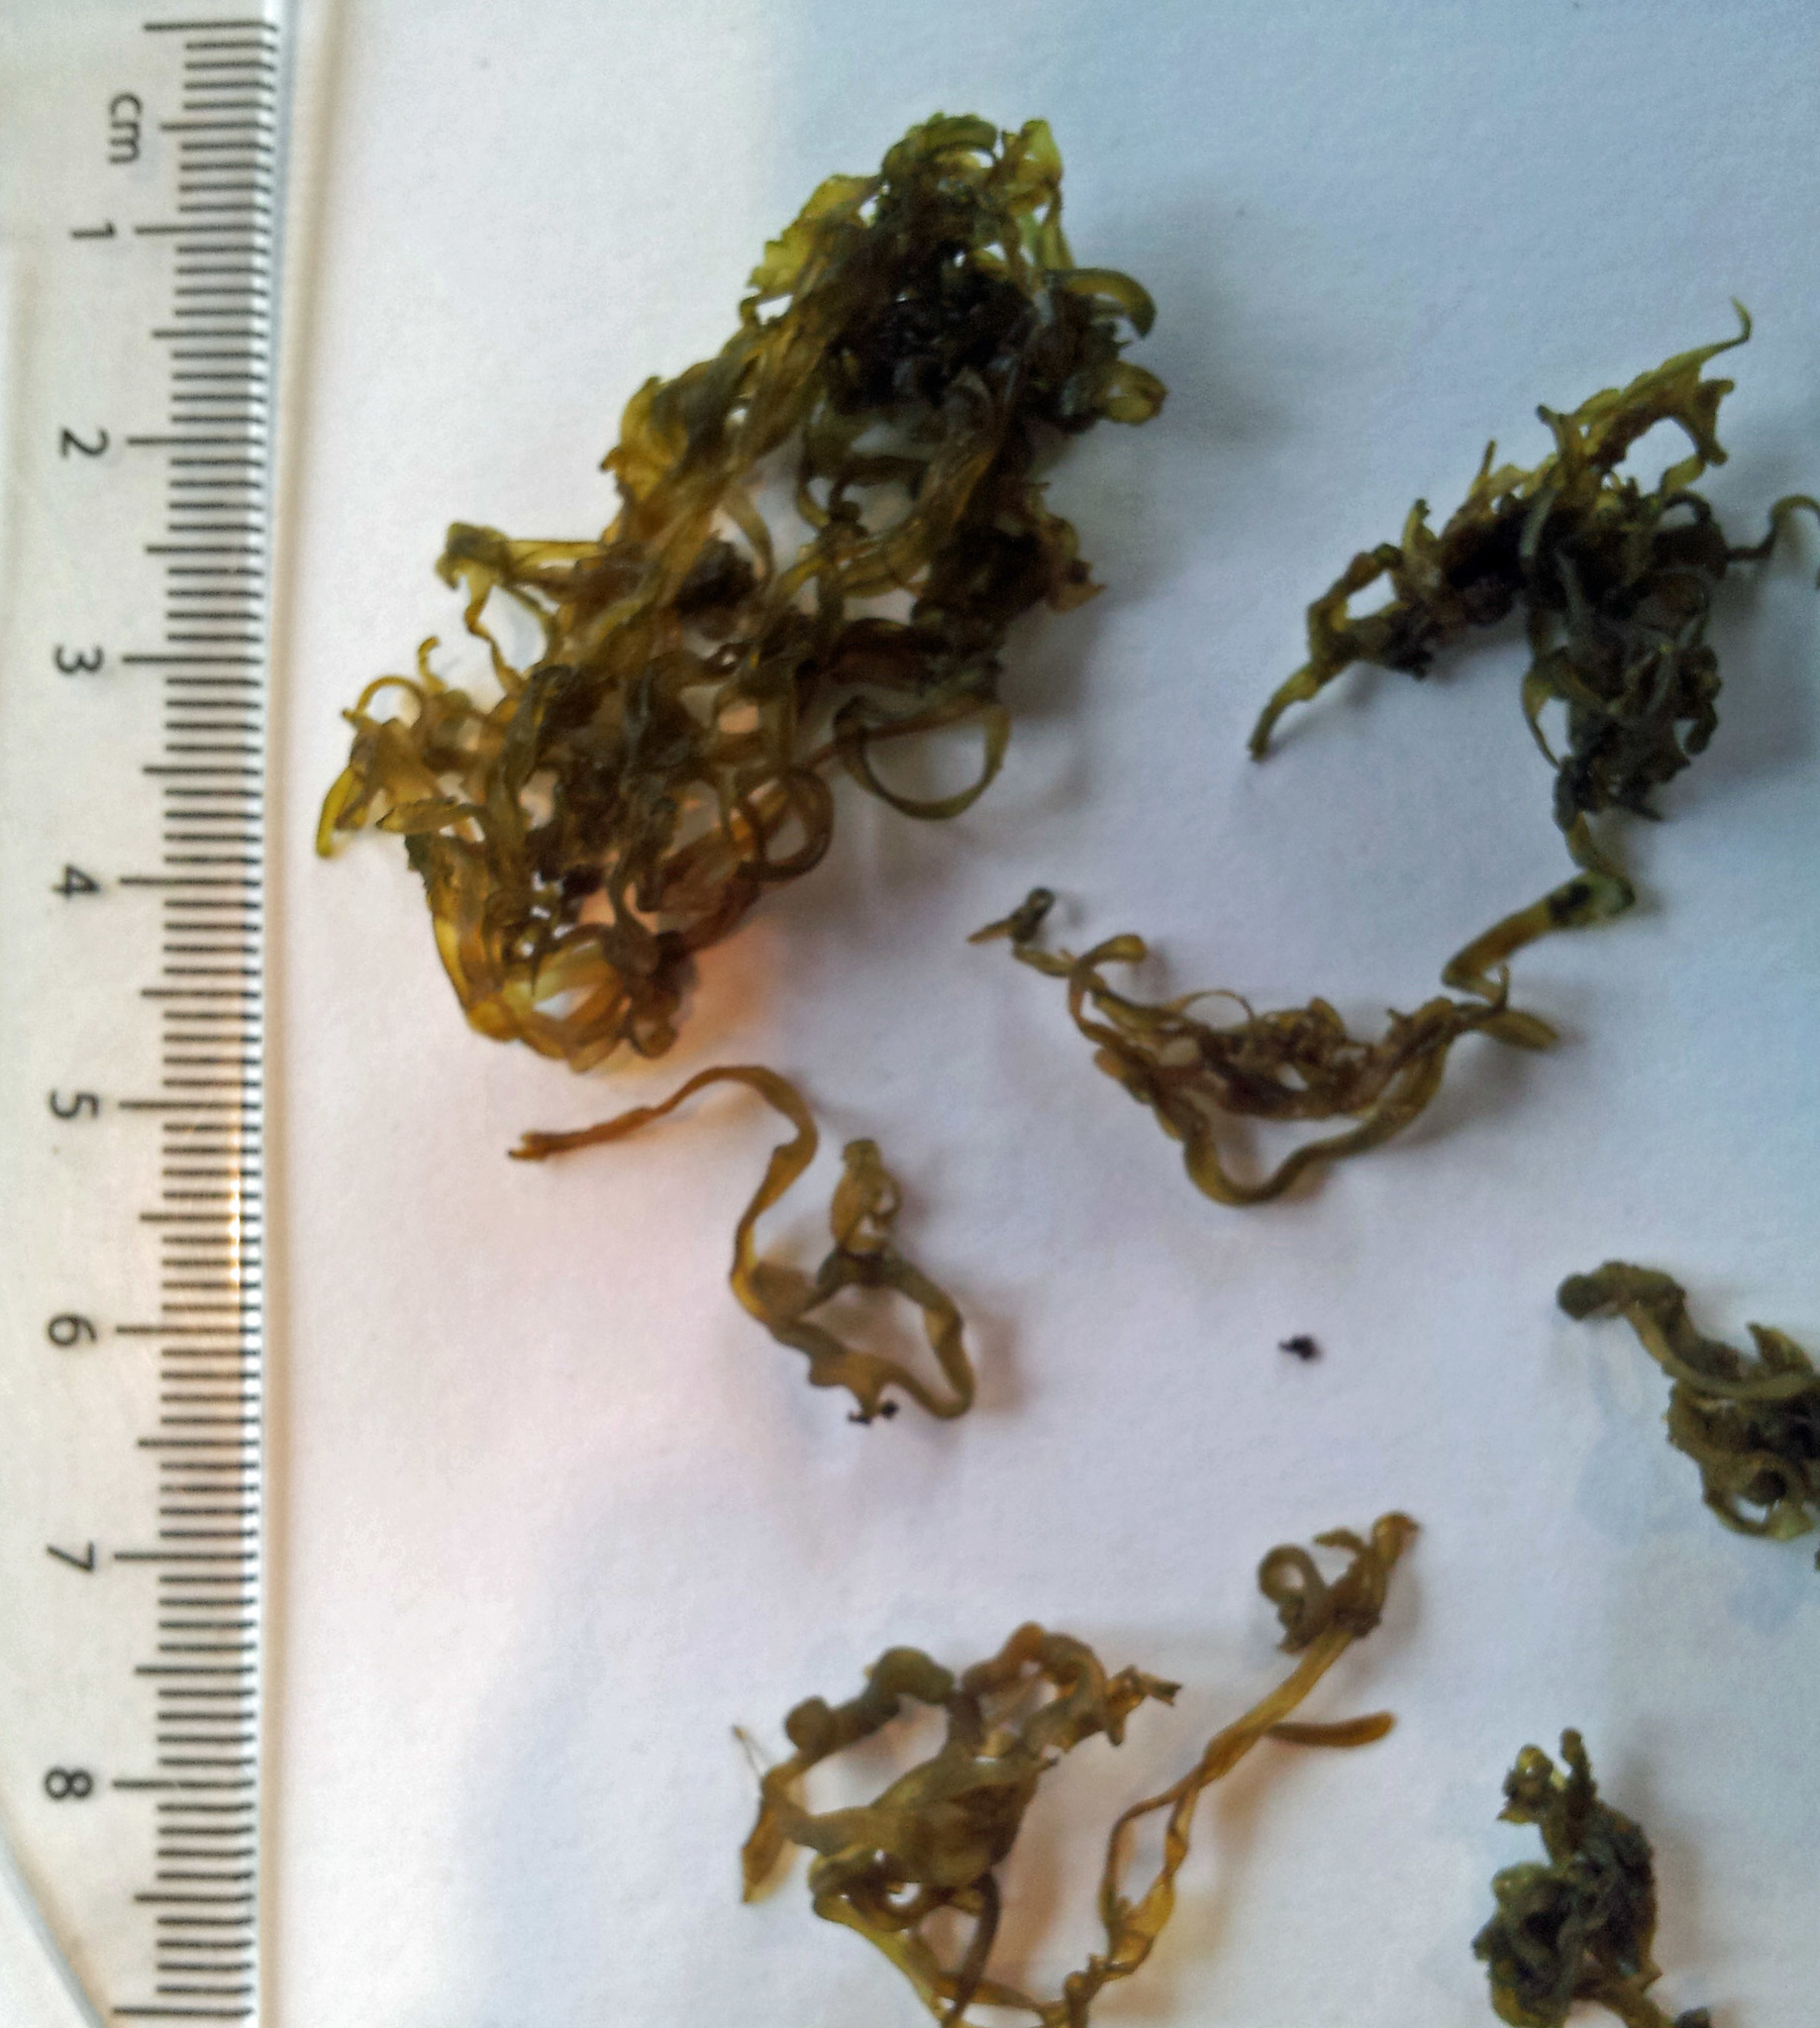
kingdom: Bacteria
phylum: Cyanobacteria
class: Cyanobacteriia
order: Cyanobacteriales
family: Nostocaceae
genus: Nostoc
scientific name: Nostoc flagelliforme
